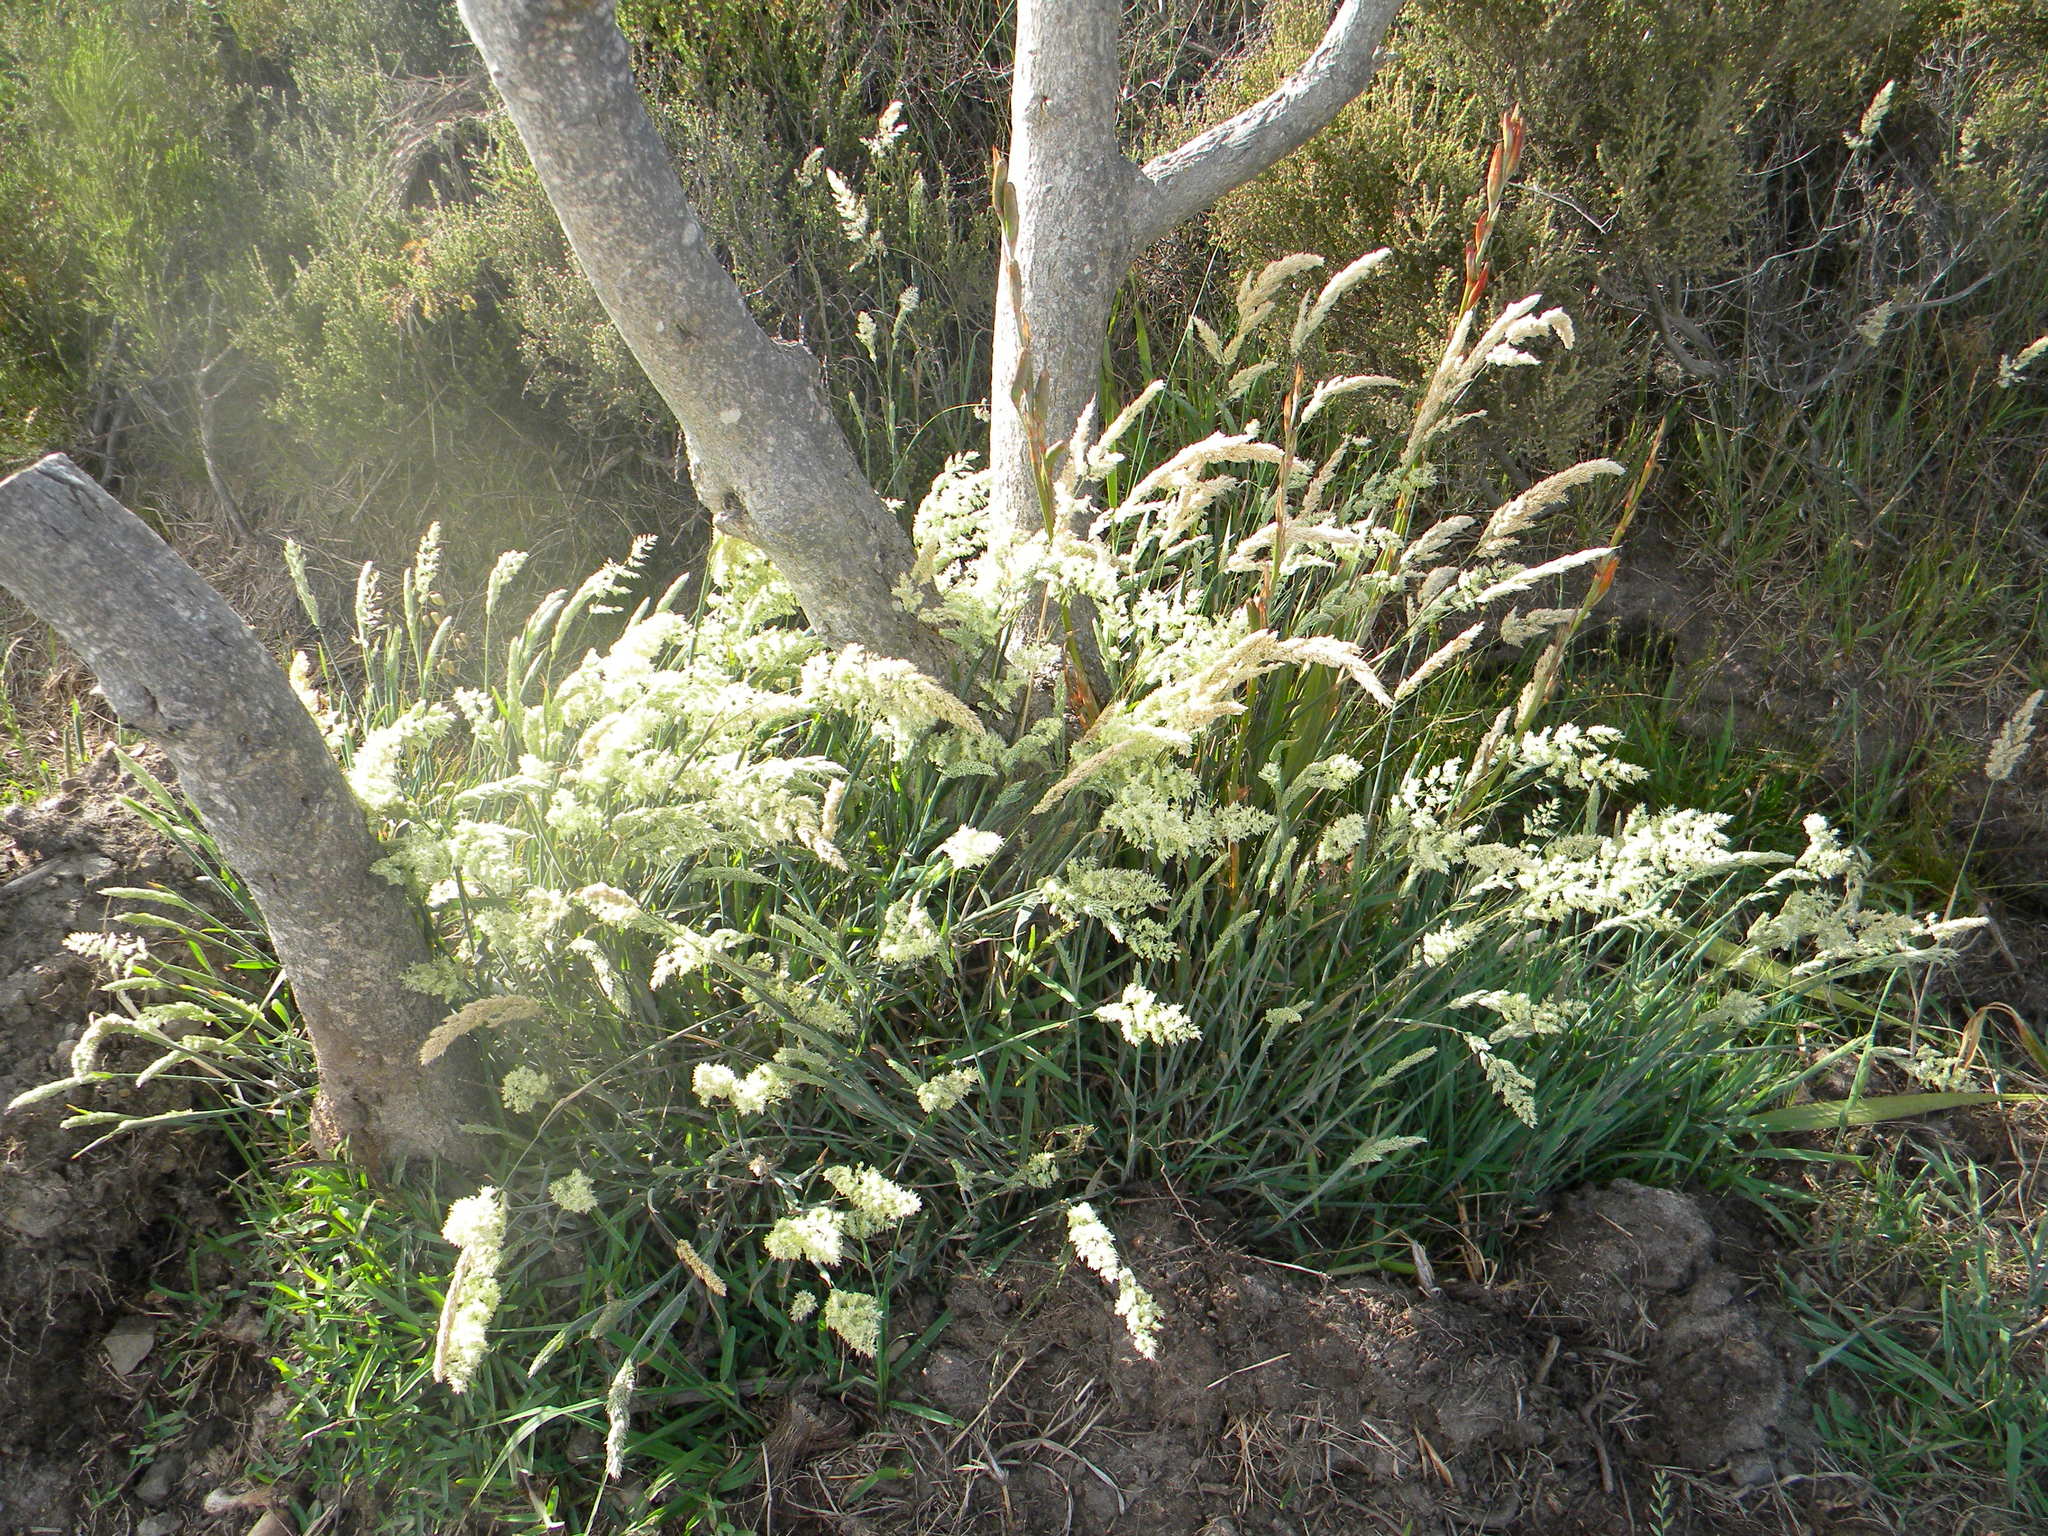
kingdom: Plantae
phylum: Tracheophyta
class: Liliopsida
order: Poales
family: Poaceae
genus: Holcus
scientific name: Holcus lanatus
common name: Yorkshire-fog
